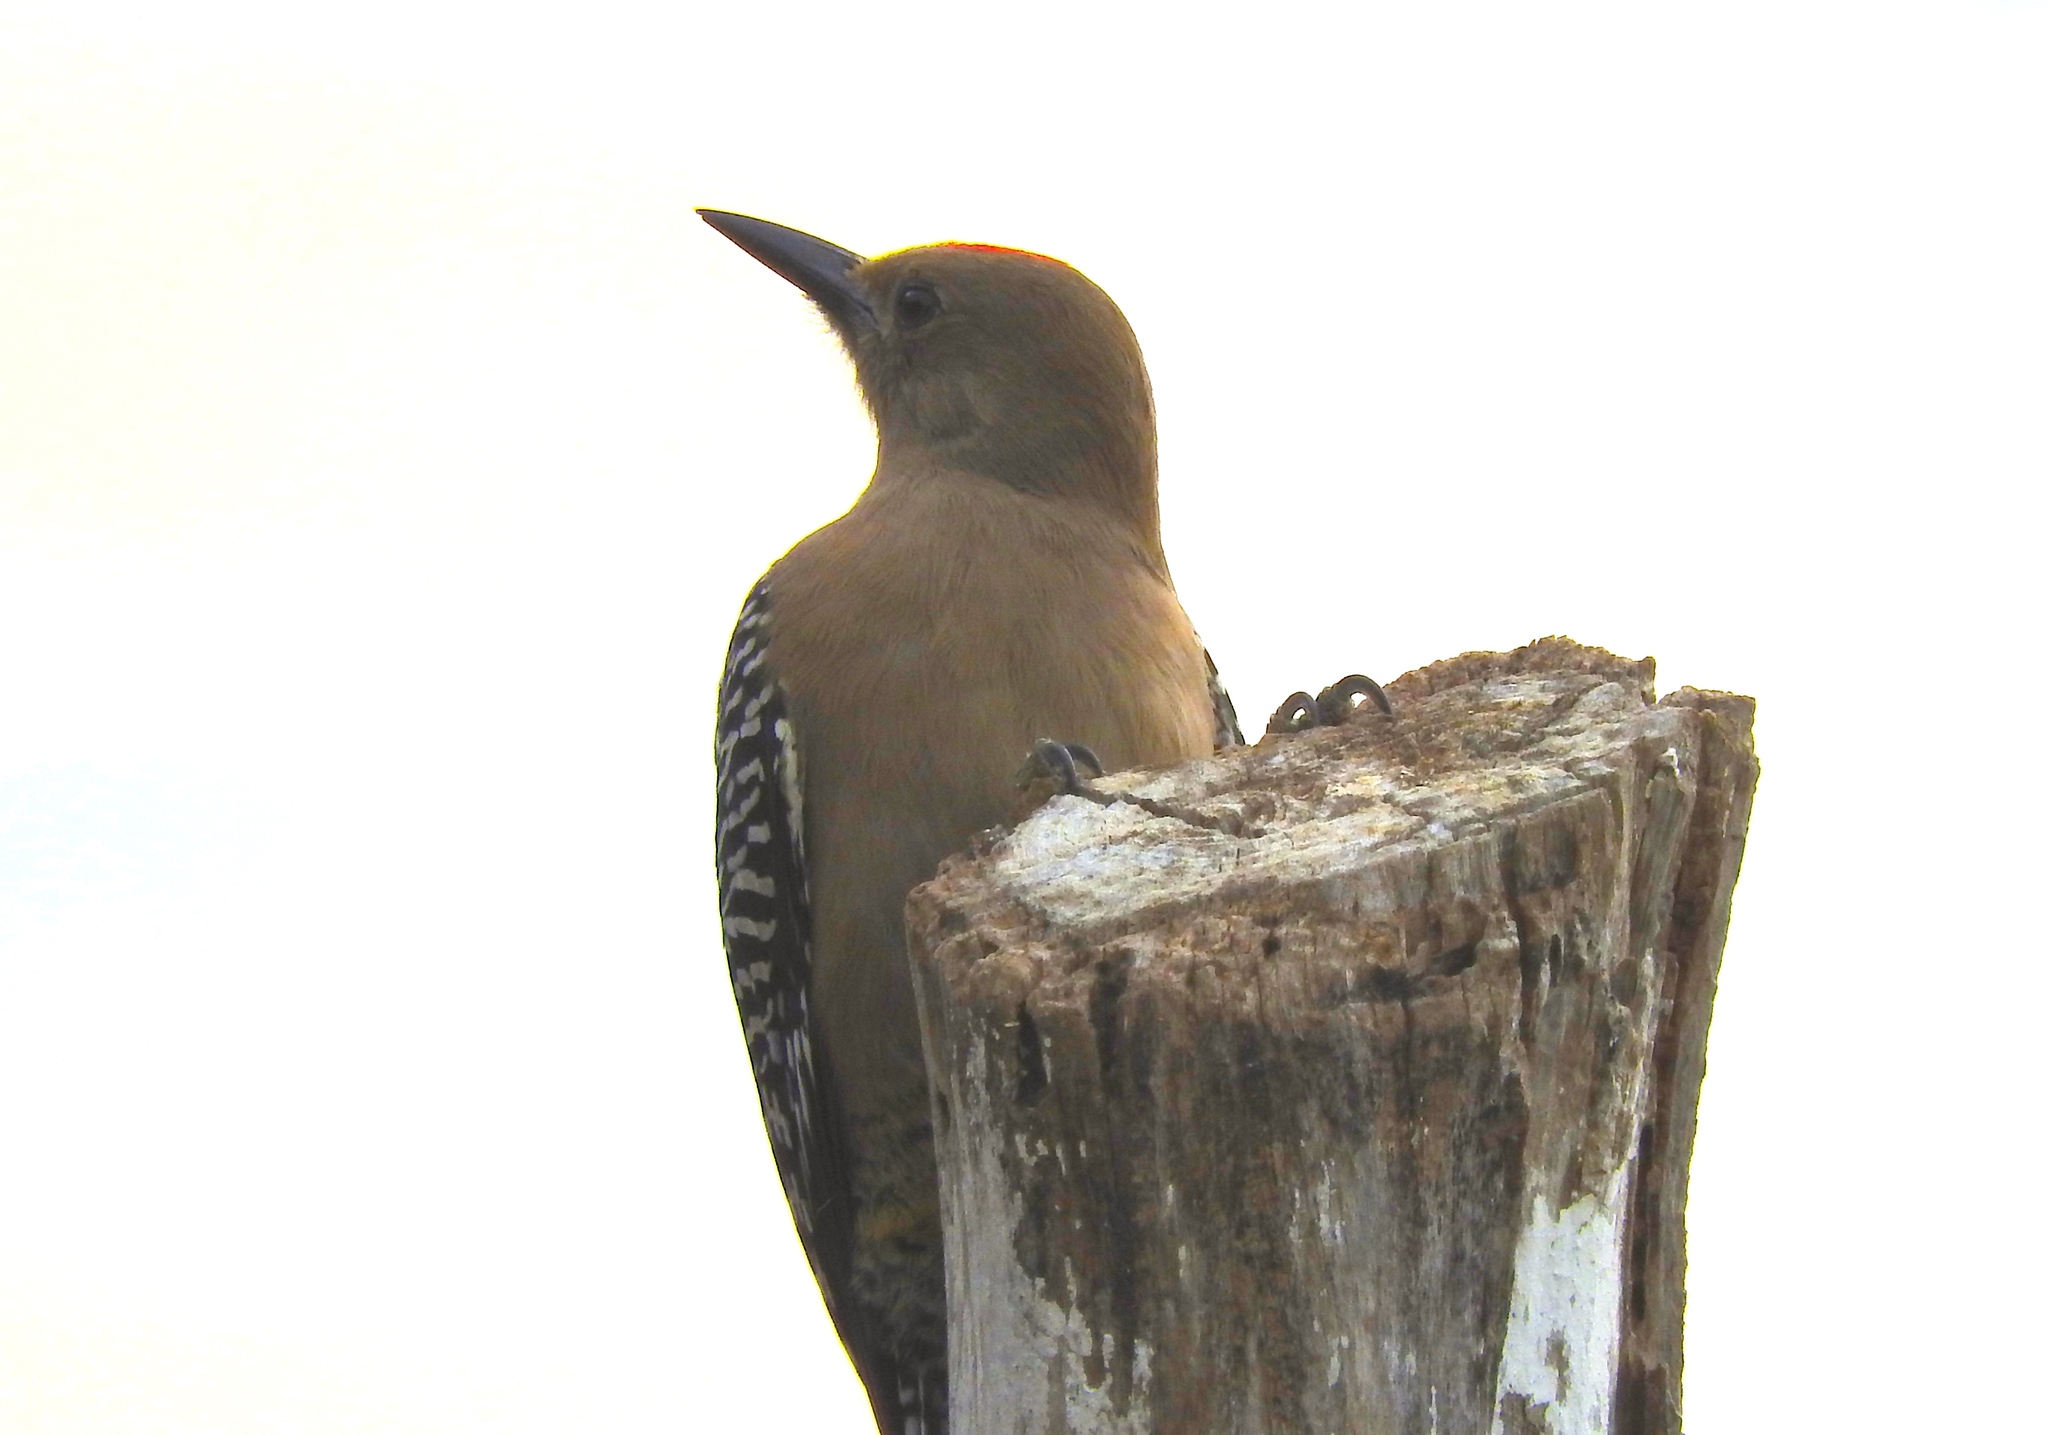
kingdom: Animalia
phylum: Chordata
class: Aves
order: Piciformes
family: Picidae
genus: Melanerpes
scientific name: Melanerpes uropygialis
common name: Gila woodpecker
